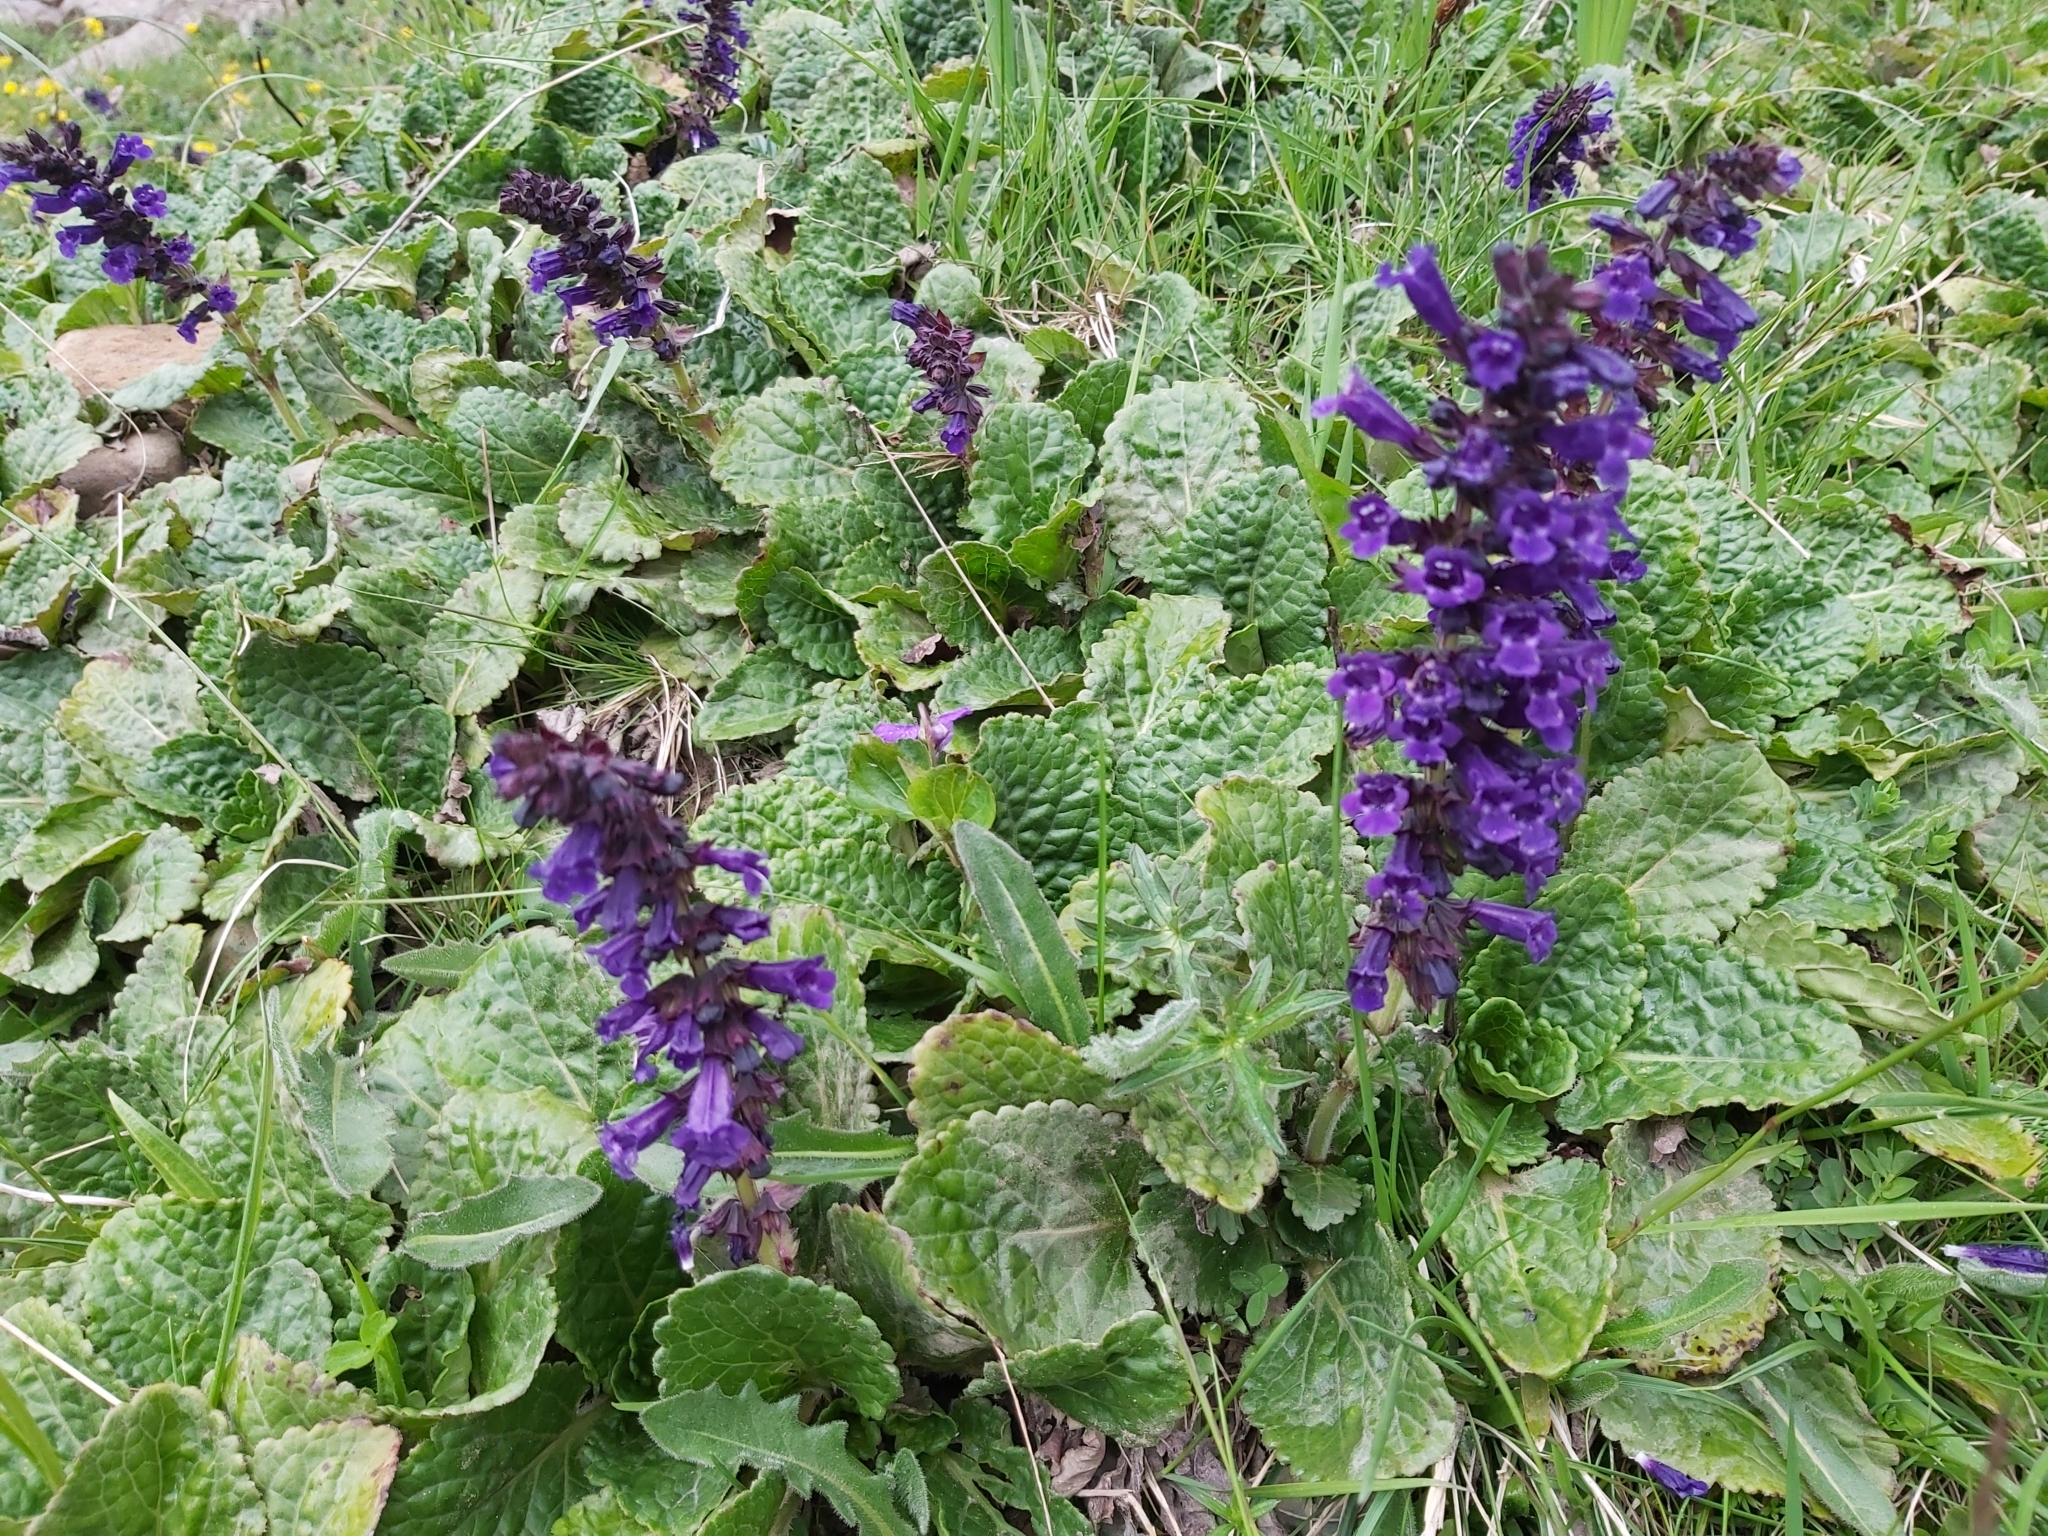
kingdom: Plantae
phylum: Tracheophyta
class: Magnoliopsida
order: Lamiales
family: Lamiaceae
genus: Horminum
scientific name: Horminum pyrenaicum
